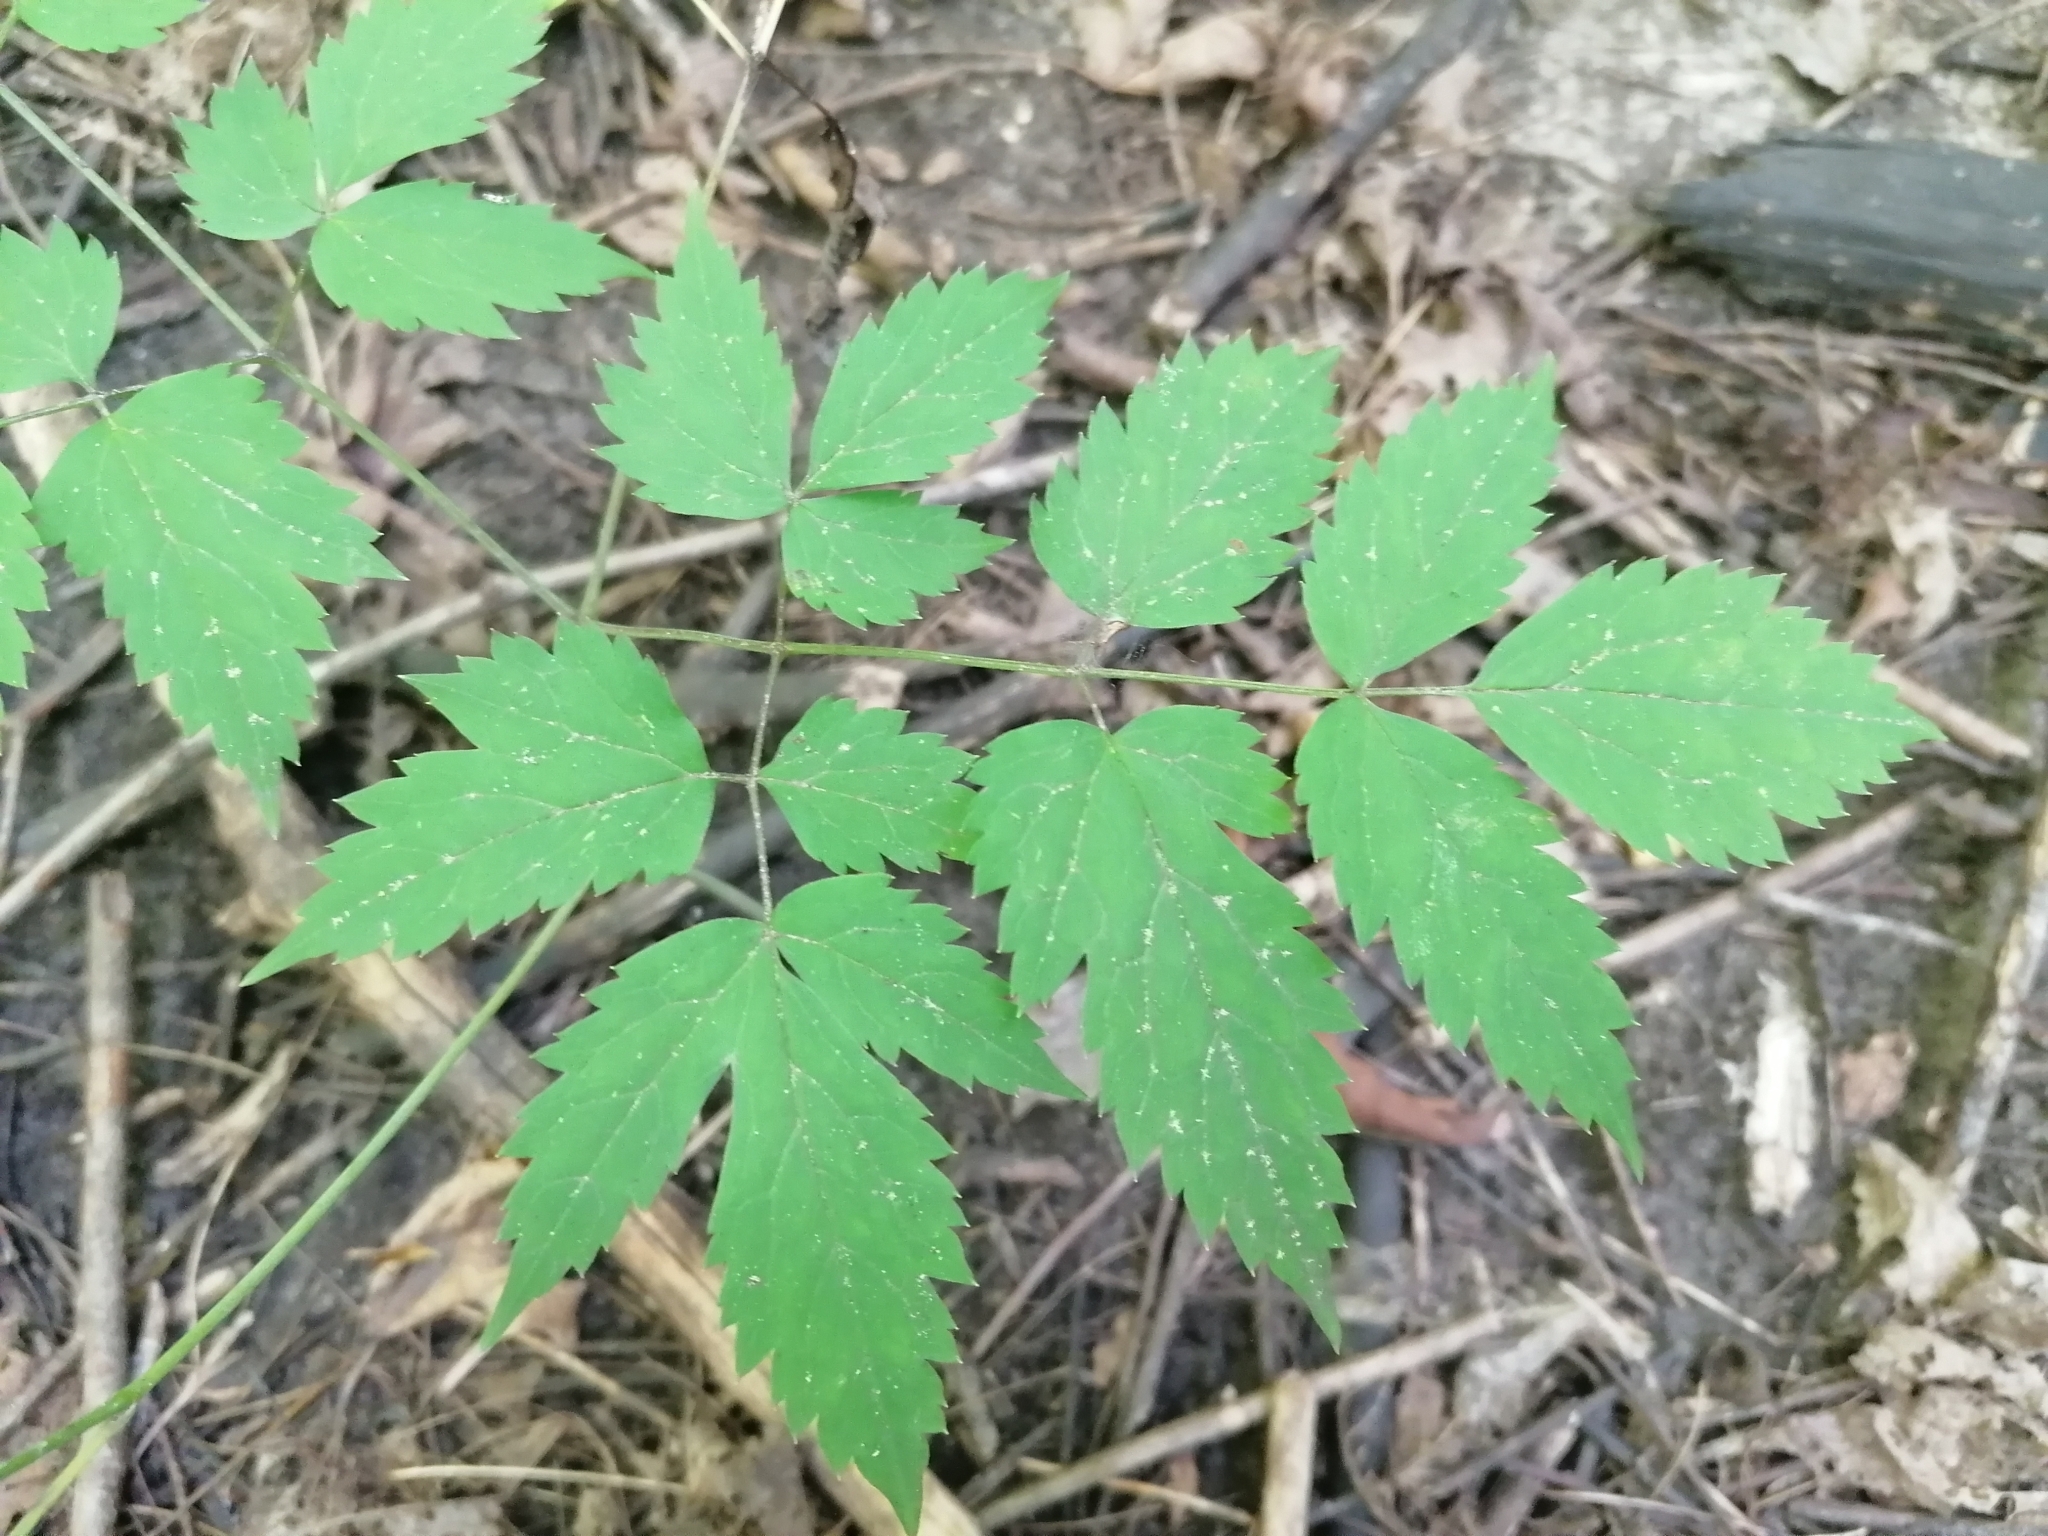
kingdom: Plantae
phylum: Tracheophyta
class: Magnoliopsida
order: Ranunculales
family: Ranunculaceae
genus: Actaea
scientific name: Actaea pachypoda
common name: Doll's-eyes
